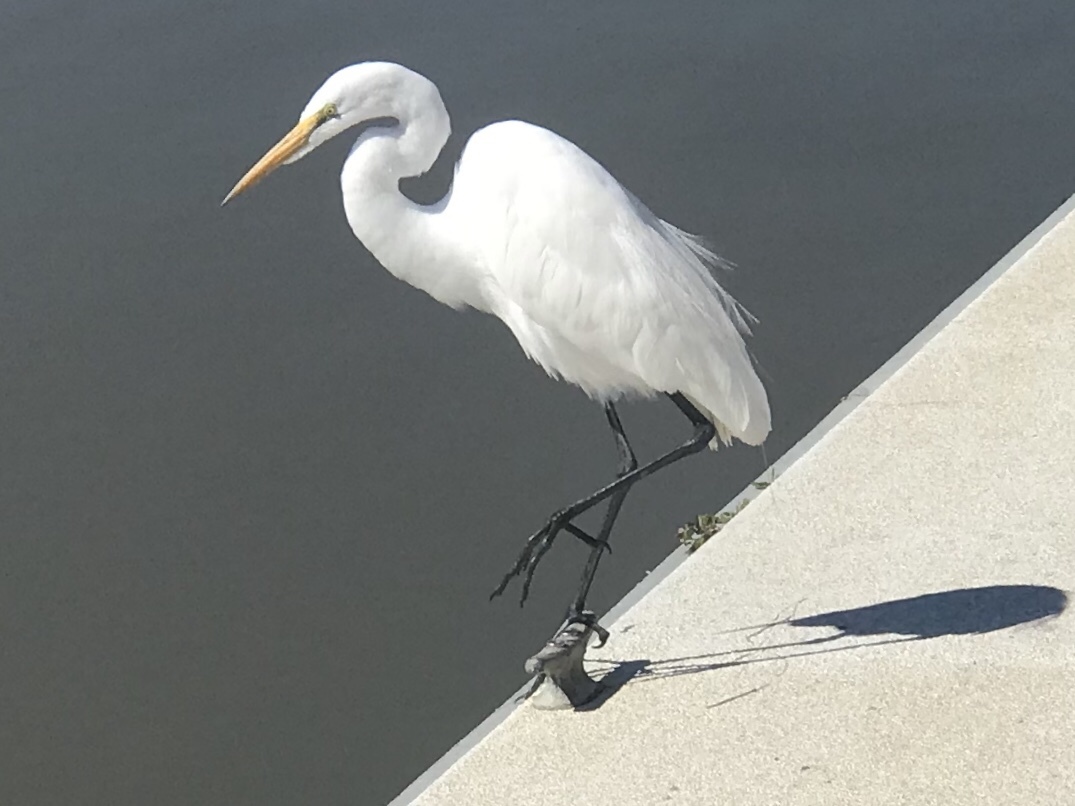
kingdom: Animalia
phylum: Chordata
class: Aves
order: Pelecaniformes
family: Ardeidae
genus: Ardea
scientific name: Ardea alba
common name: Great egret
